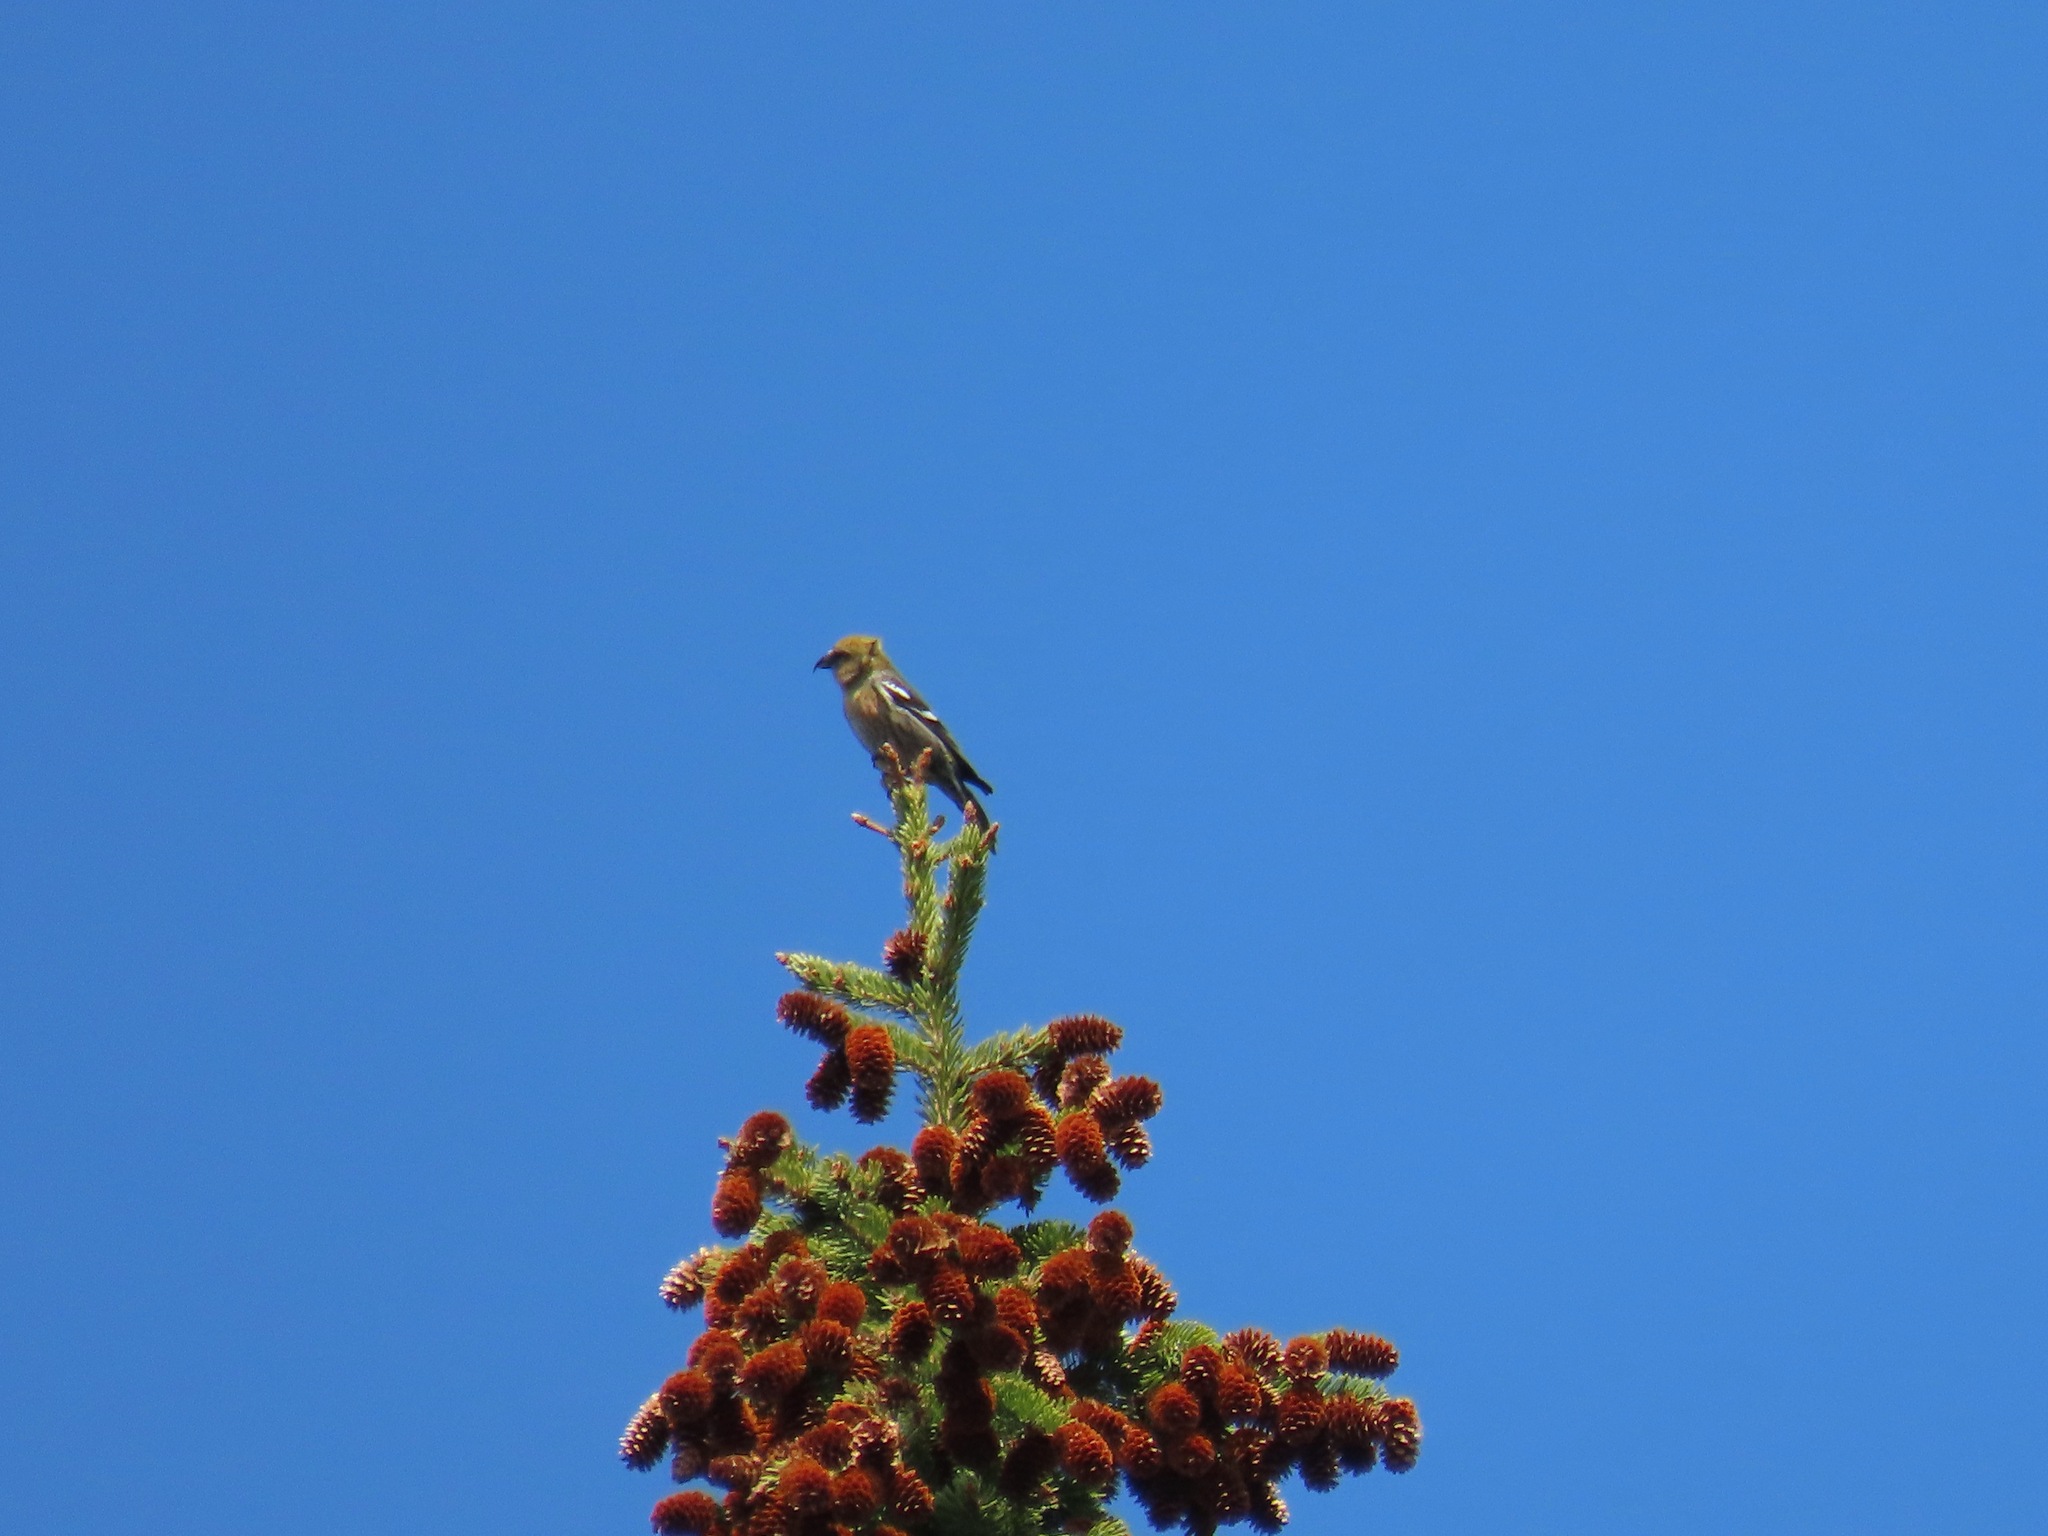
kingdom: Animalia
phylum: Chordata
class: Aves
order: Passeriformes
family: Fringillidae
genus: Loxia
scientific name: Loxia leucoptera
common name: Two-barred crossbill
